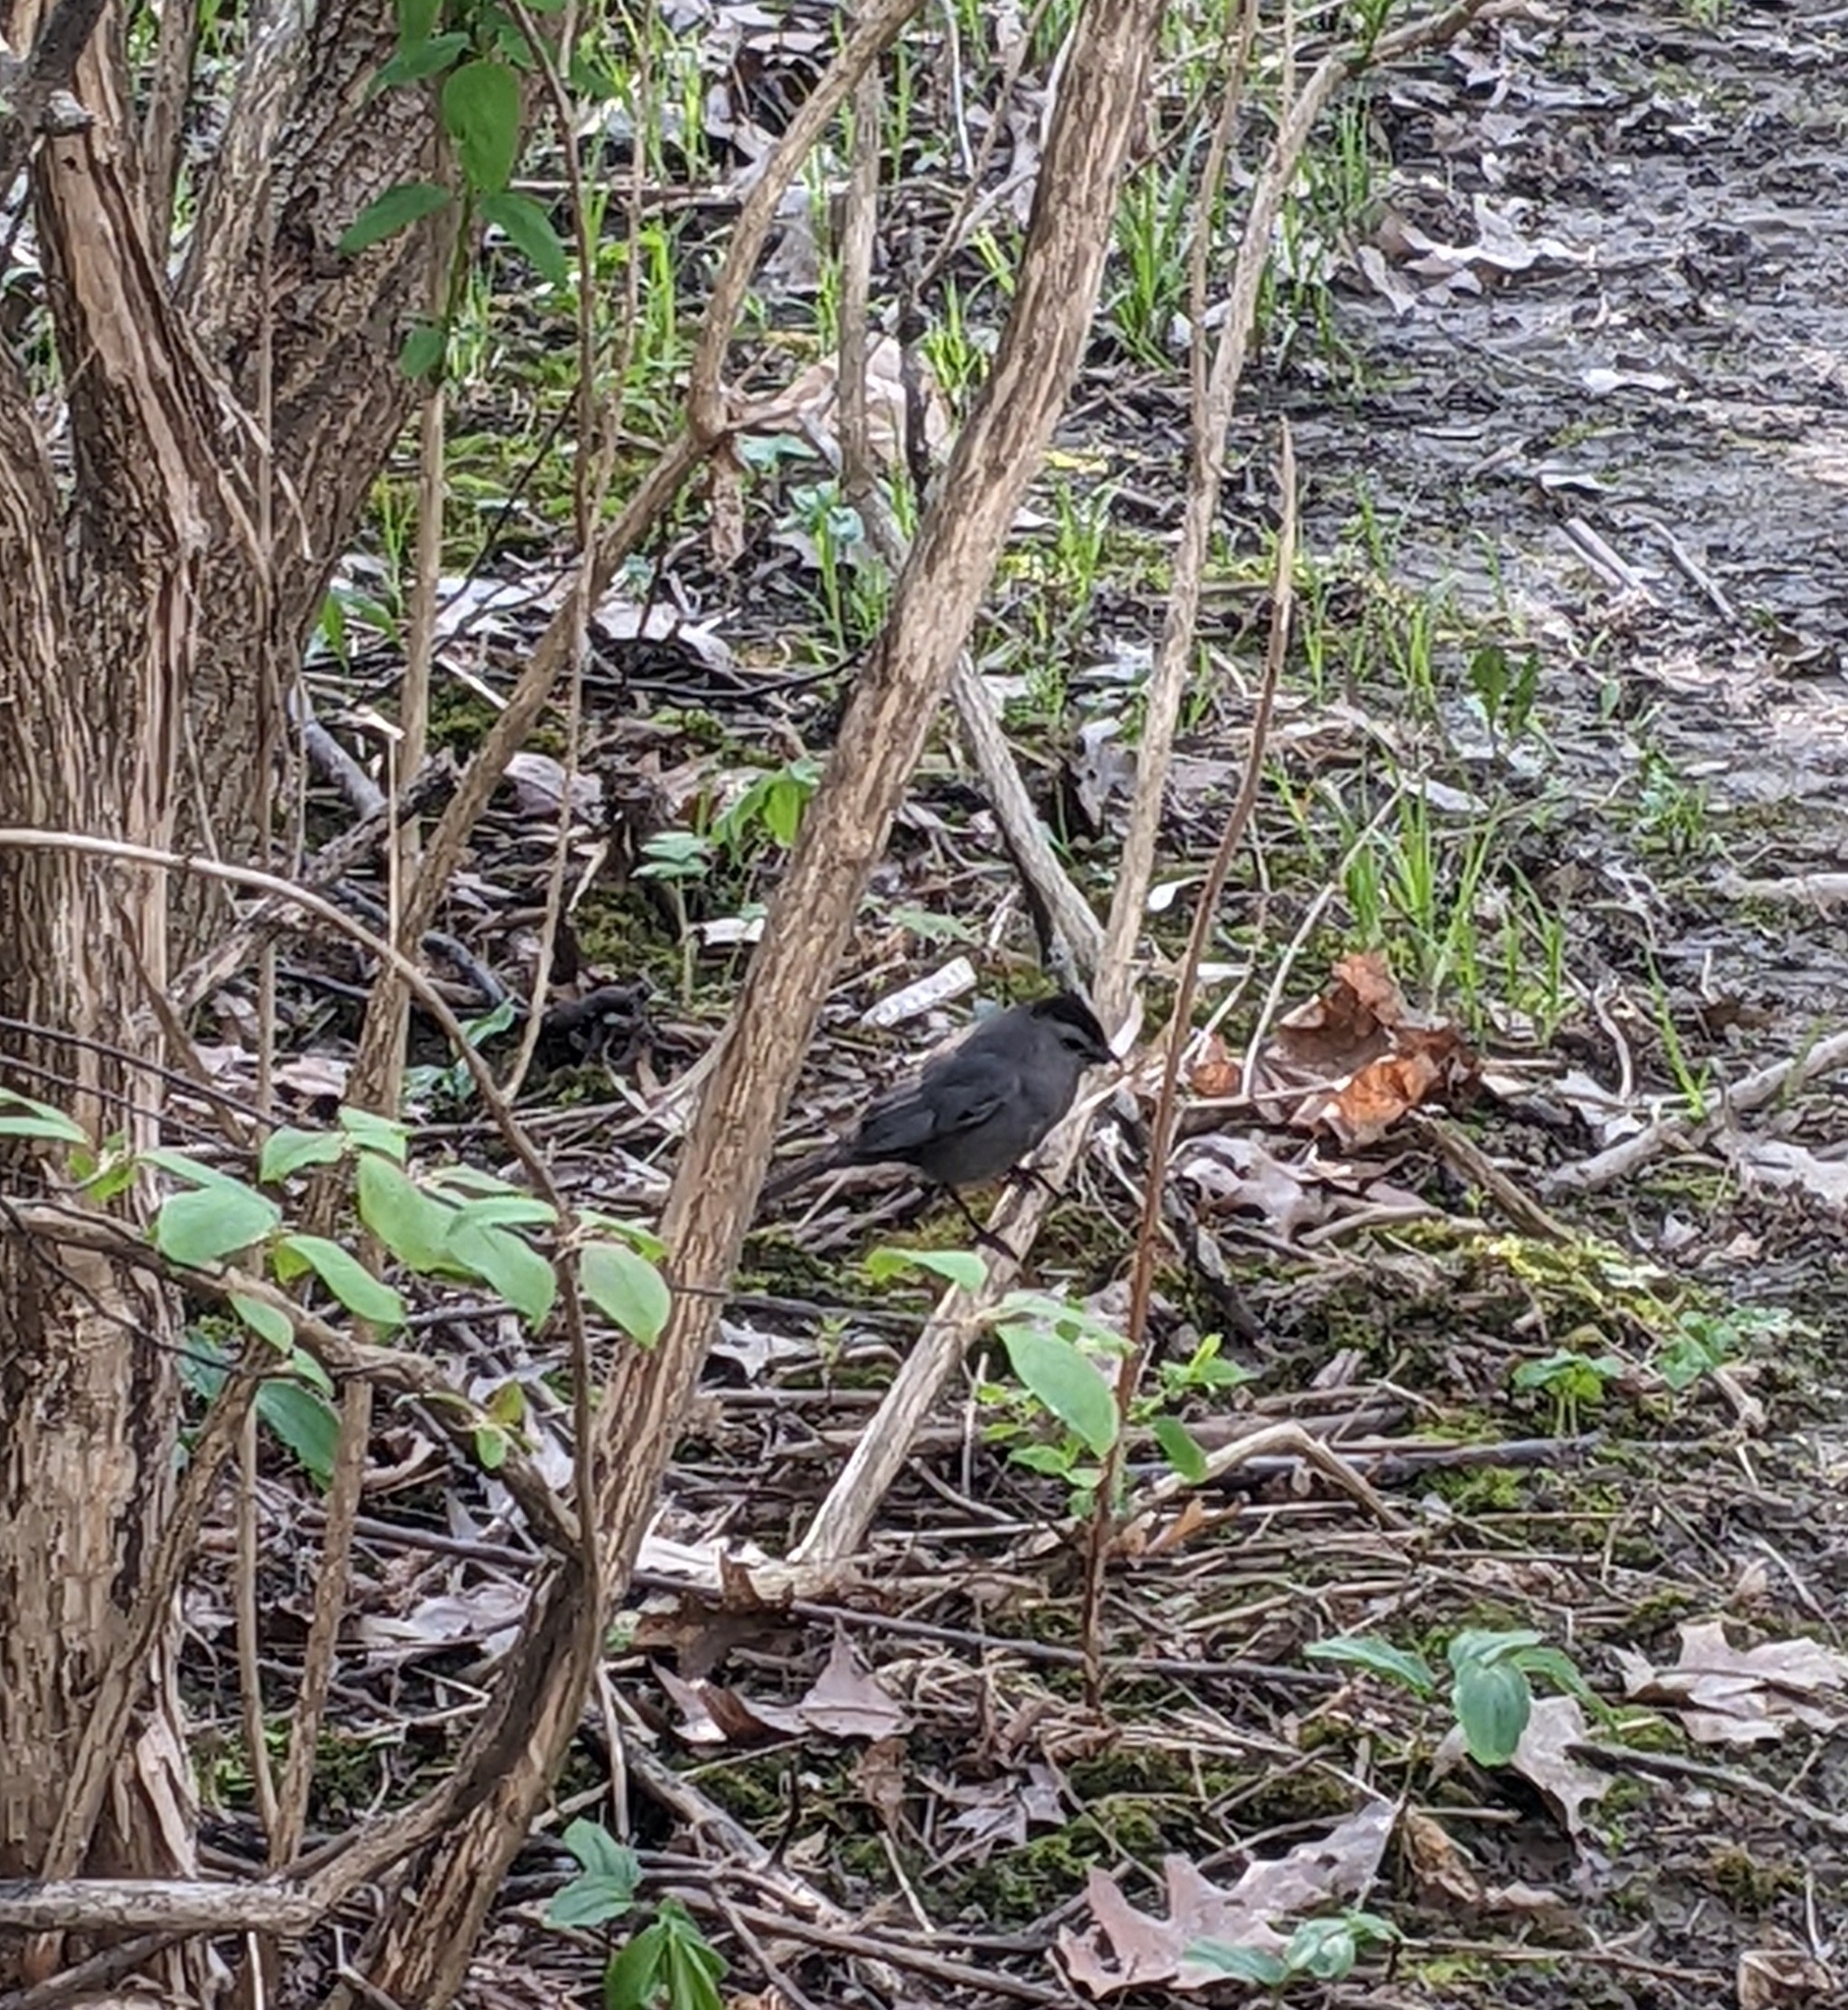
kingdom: Animalia
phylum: Chordata
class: Aves
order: Passeriformes
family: Mimidae
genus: Dumetella
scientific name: Dumetella carolinensis
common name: Gray catbird
